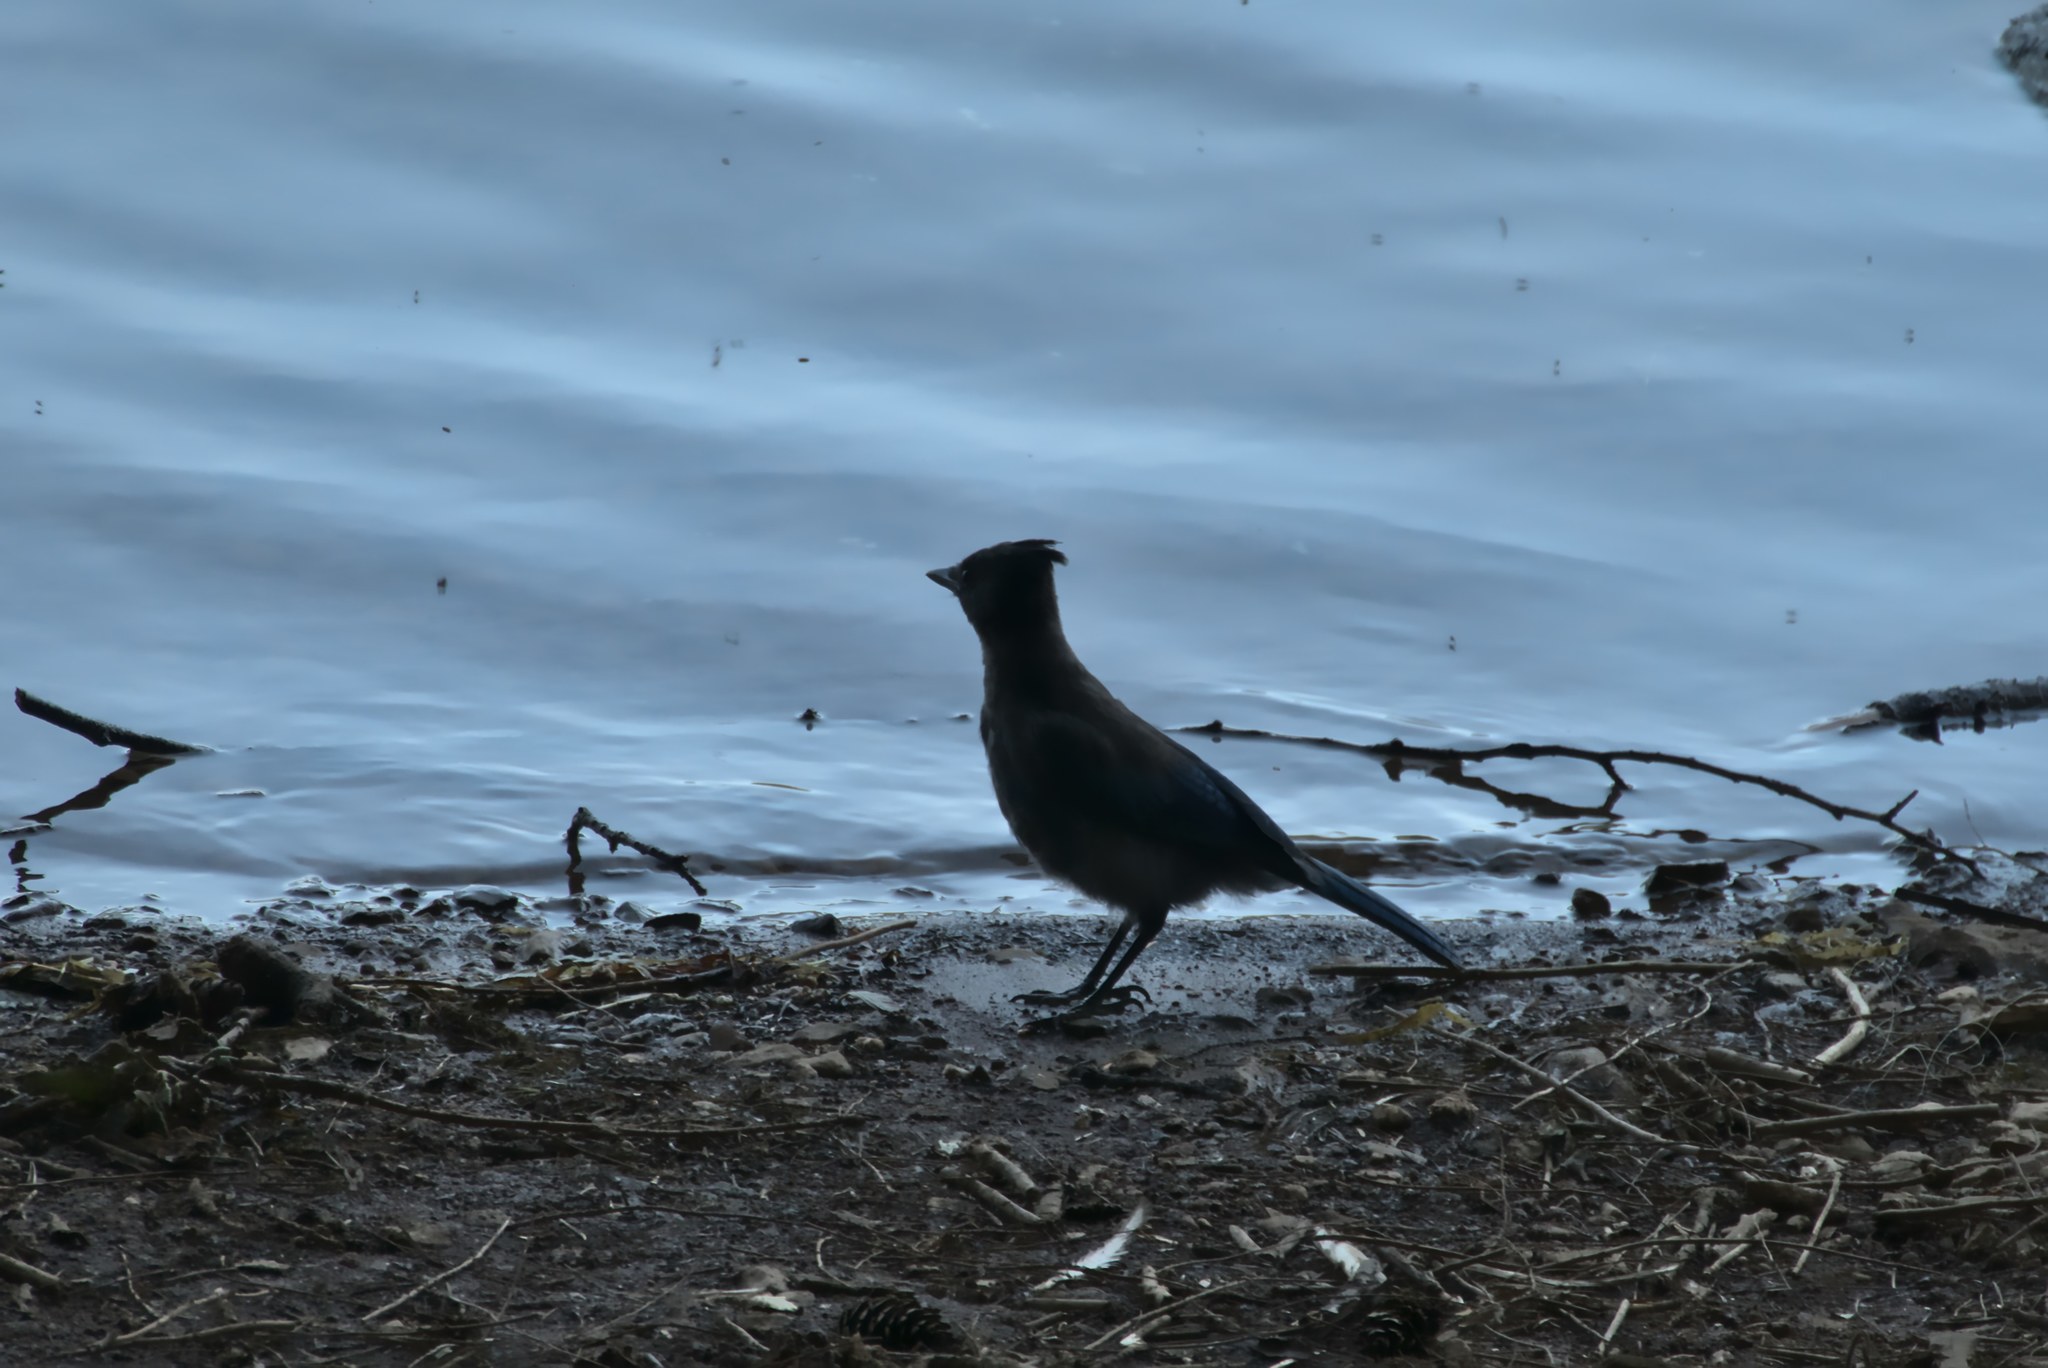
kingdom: Animalia
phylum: Chordata
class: Aves
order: Passeriformes
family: Corvidae
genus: Cyanocitta
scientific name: Cyanocitta stelleri
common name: Steller's jay
